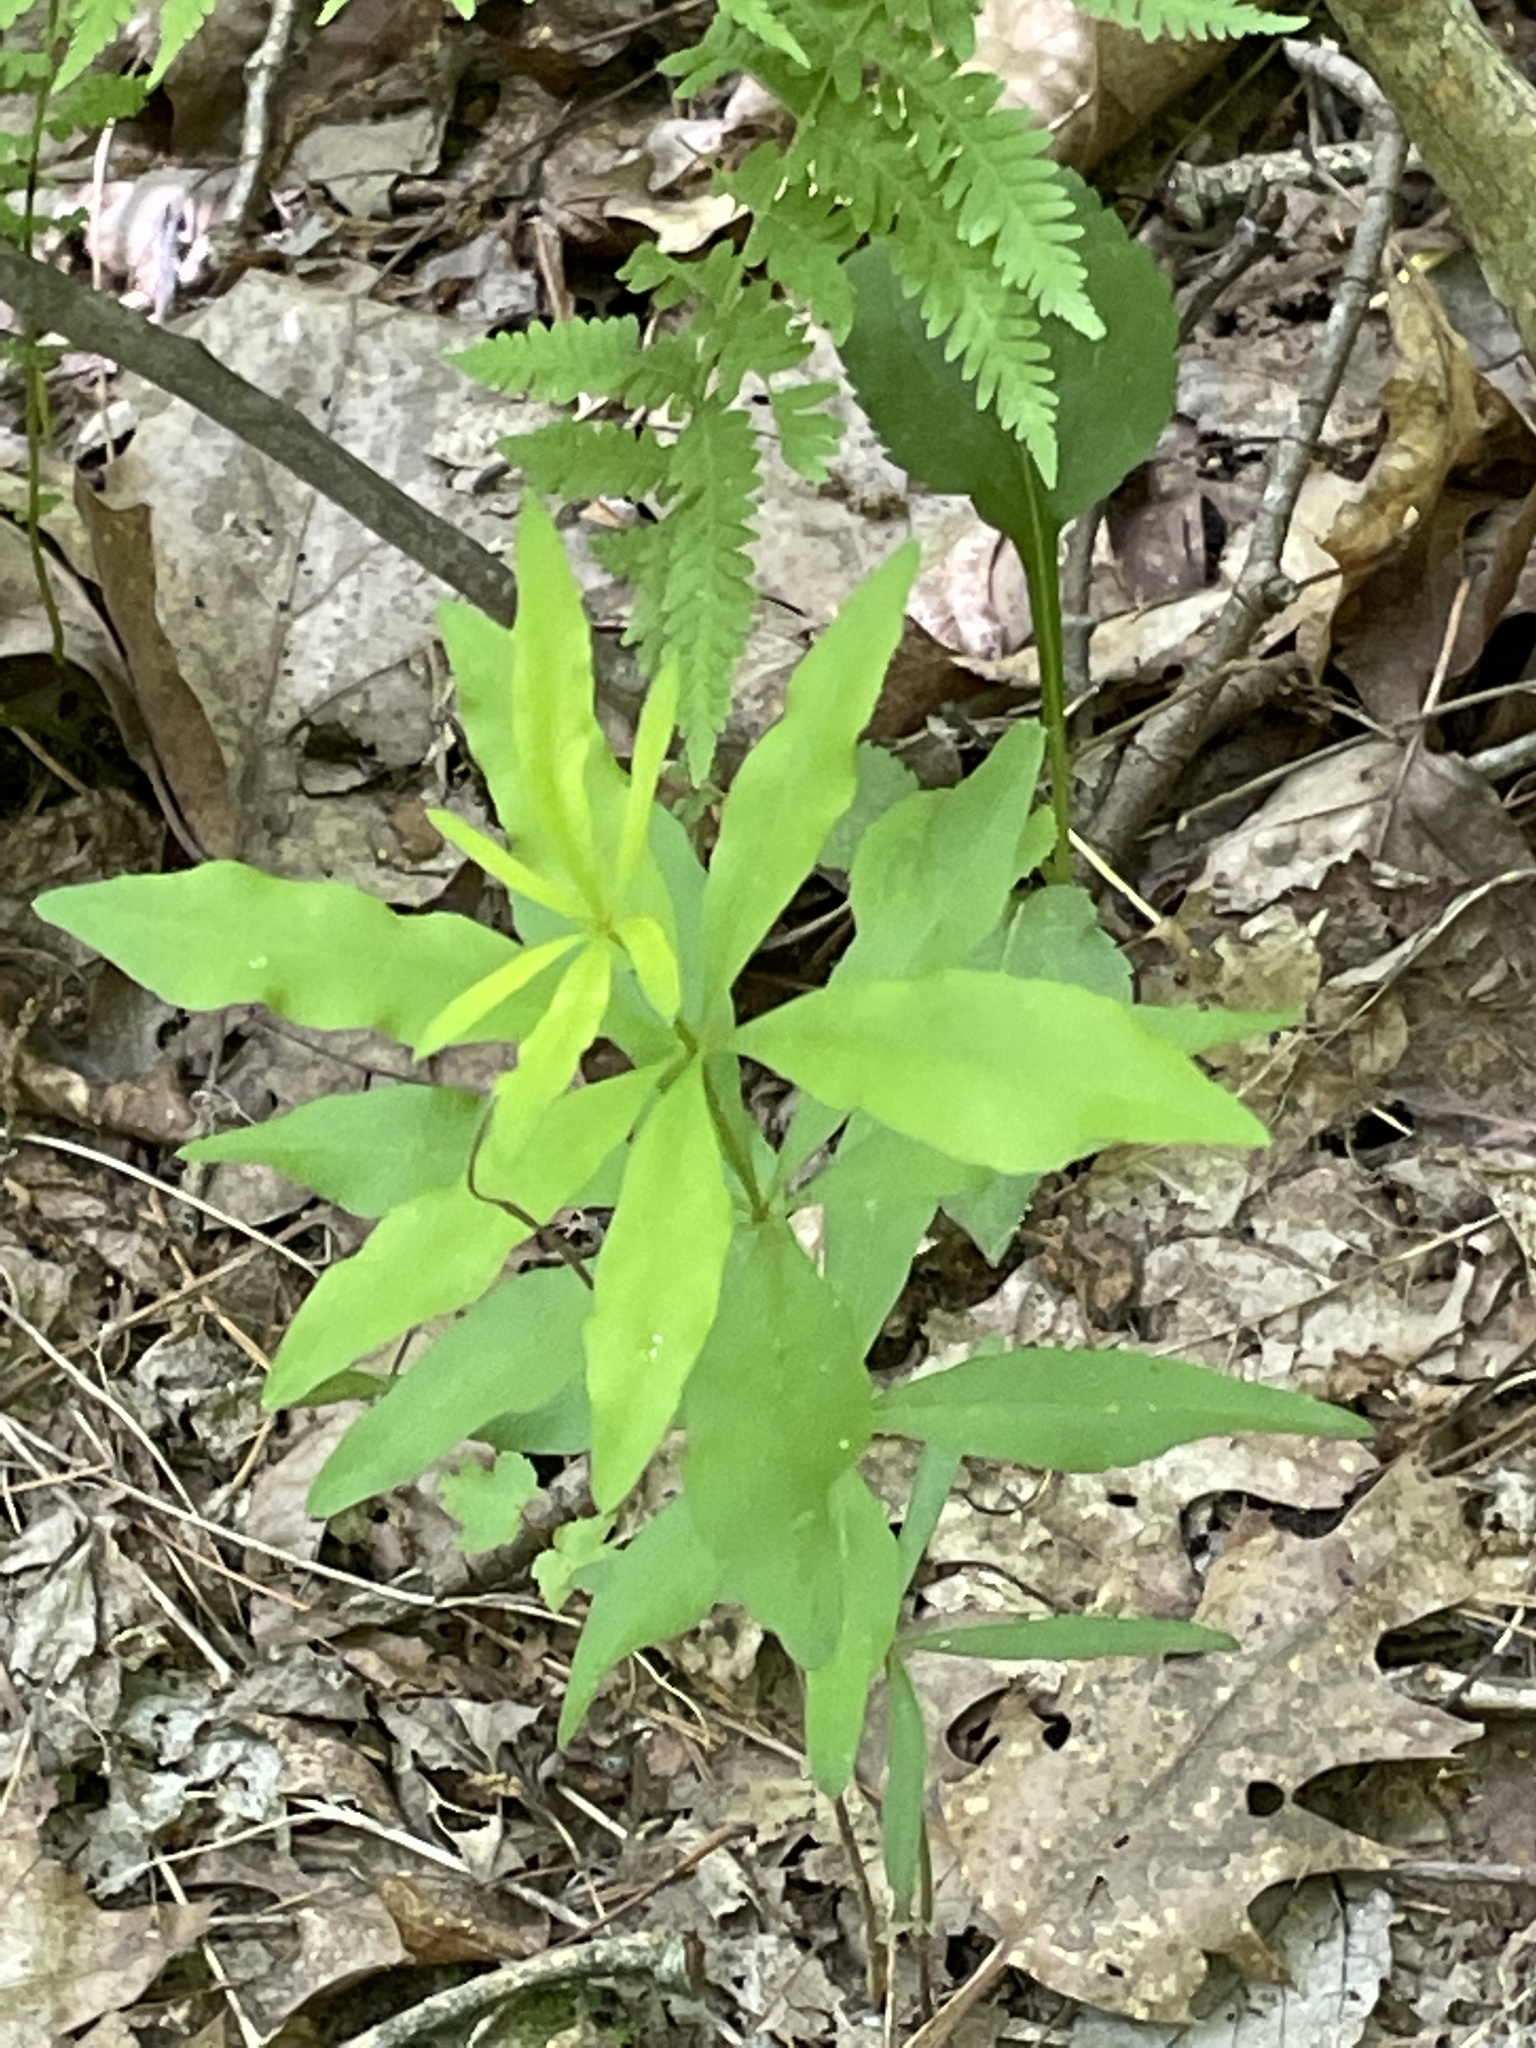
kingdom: Plantae
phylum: Tracheophyta
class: Magnoliopsida
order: Asterales
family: Asteraceae
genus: Coreopsis
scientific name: Coreopsis major
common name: Forest tickseed
